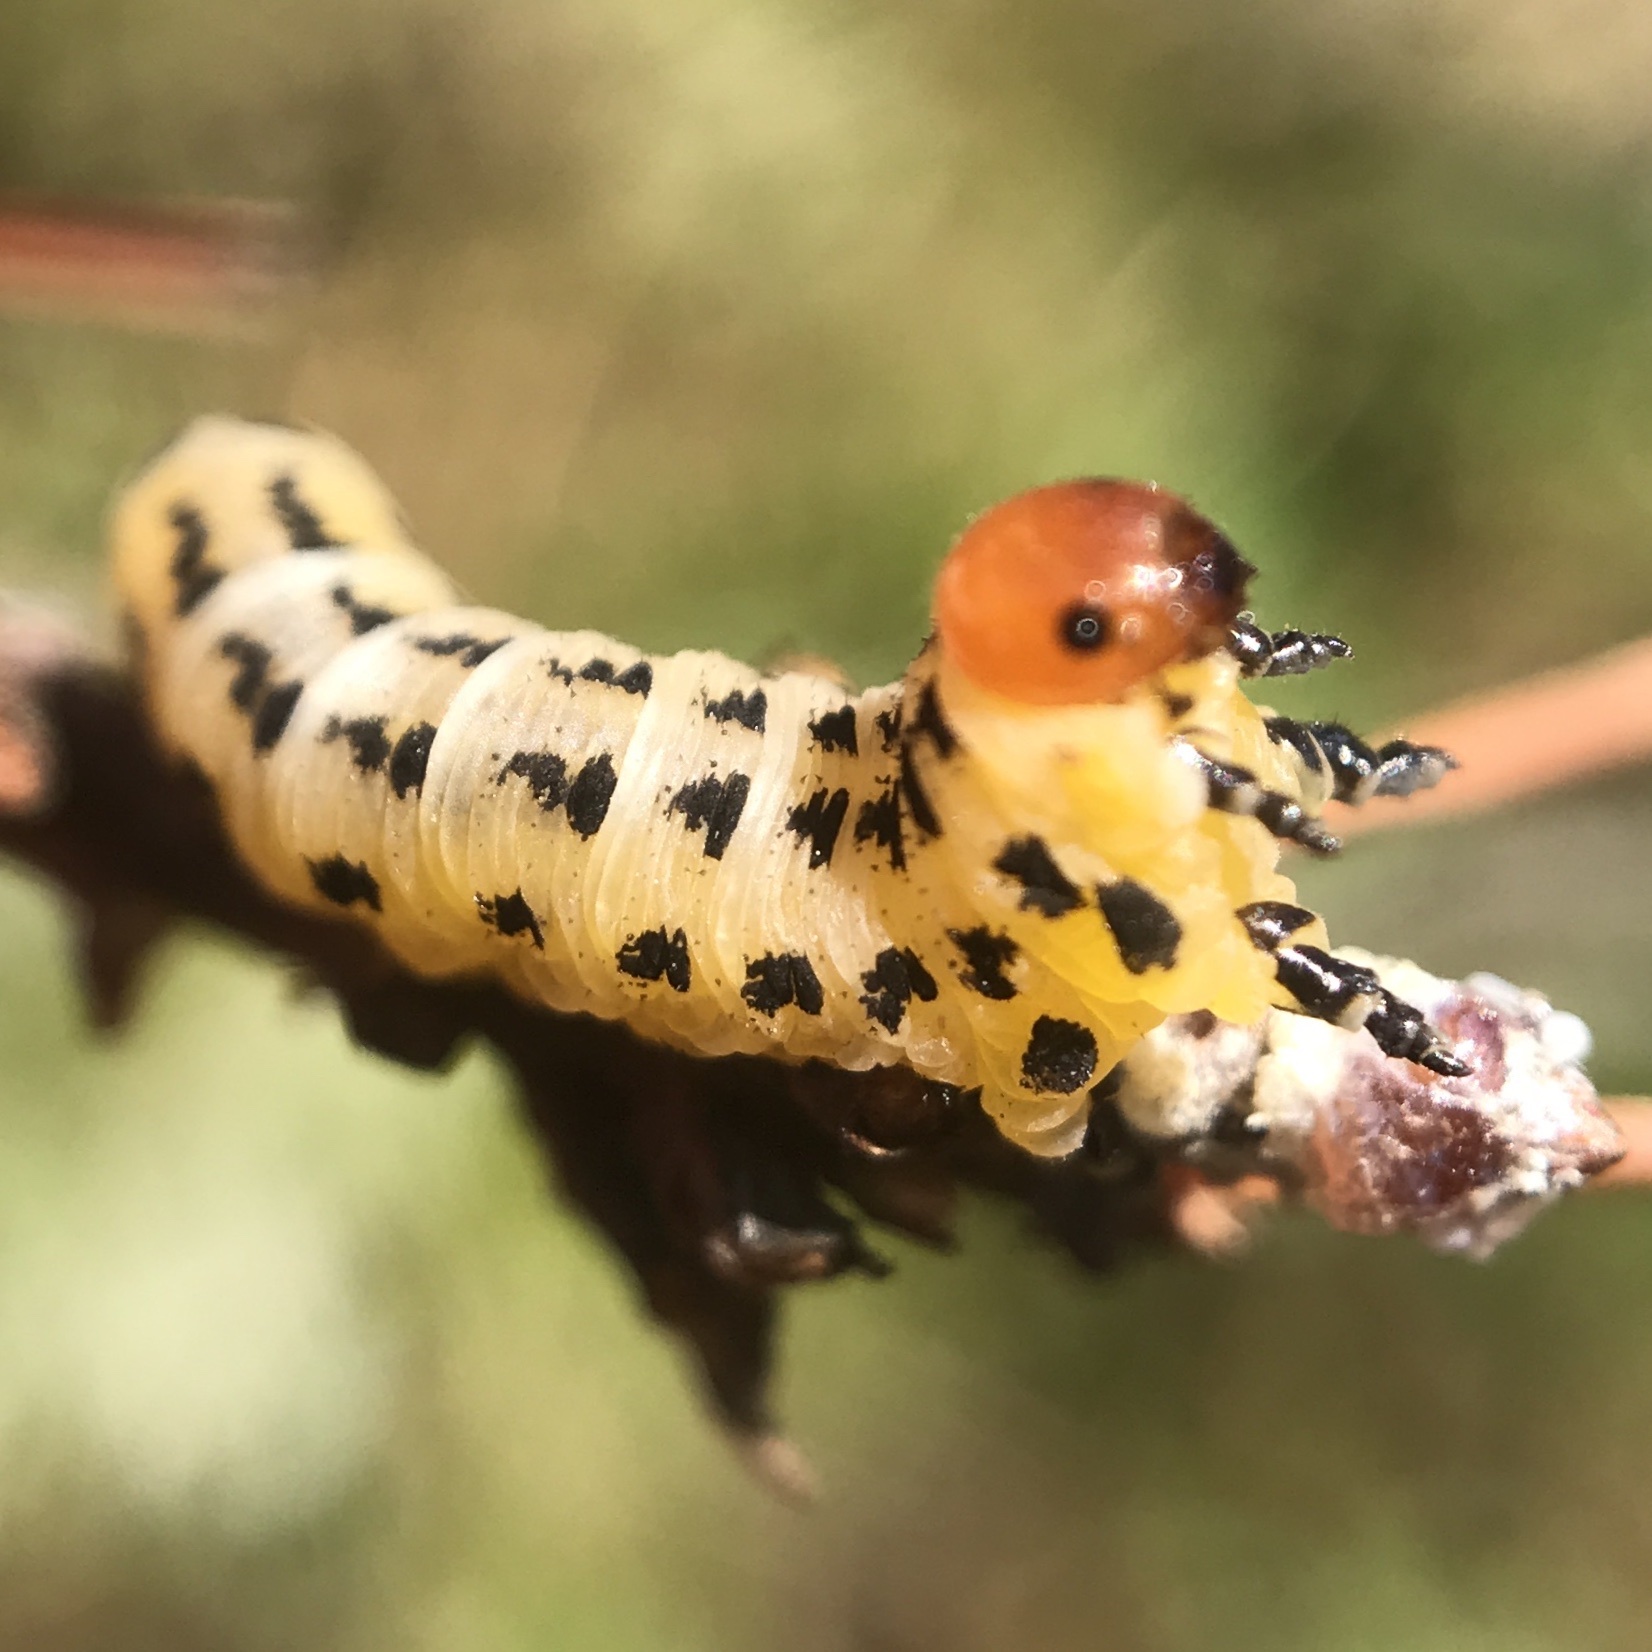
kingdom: Animalia
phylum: Arthropoda
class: Insecta
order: Hymenoptera
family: Diprionidae
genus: Neodiprion
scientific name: Neodiprion lecontei
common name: Redheaded pine sawfly
